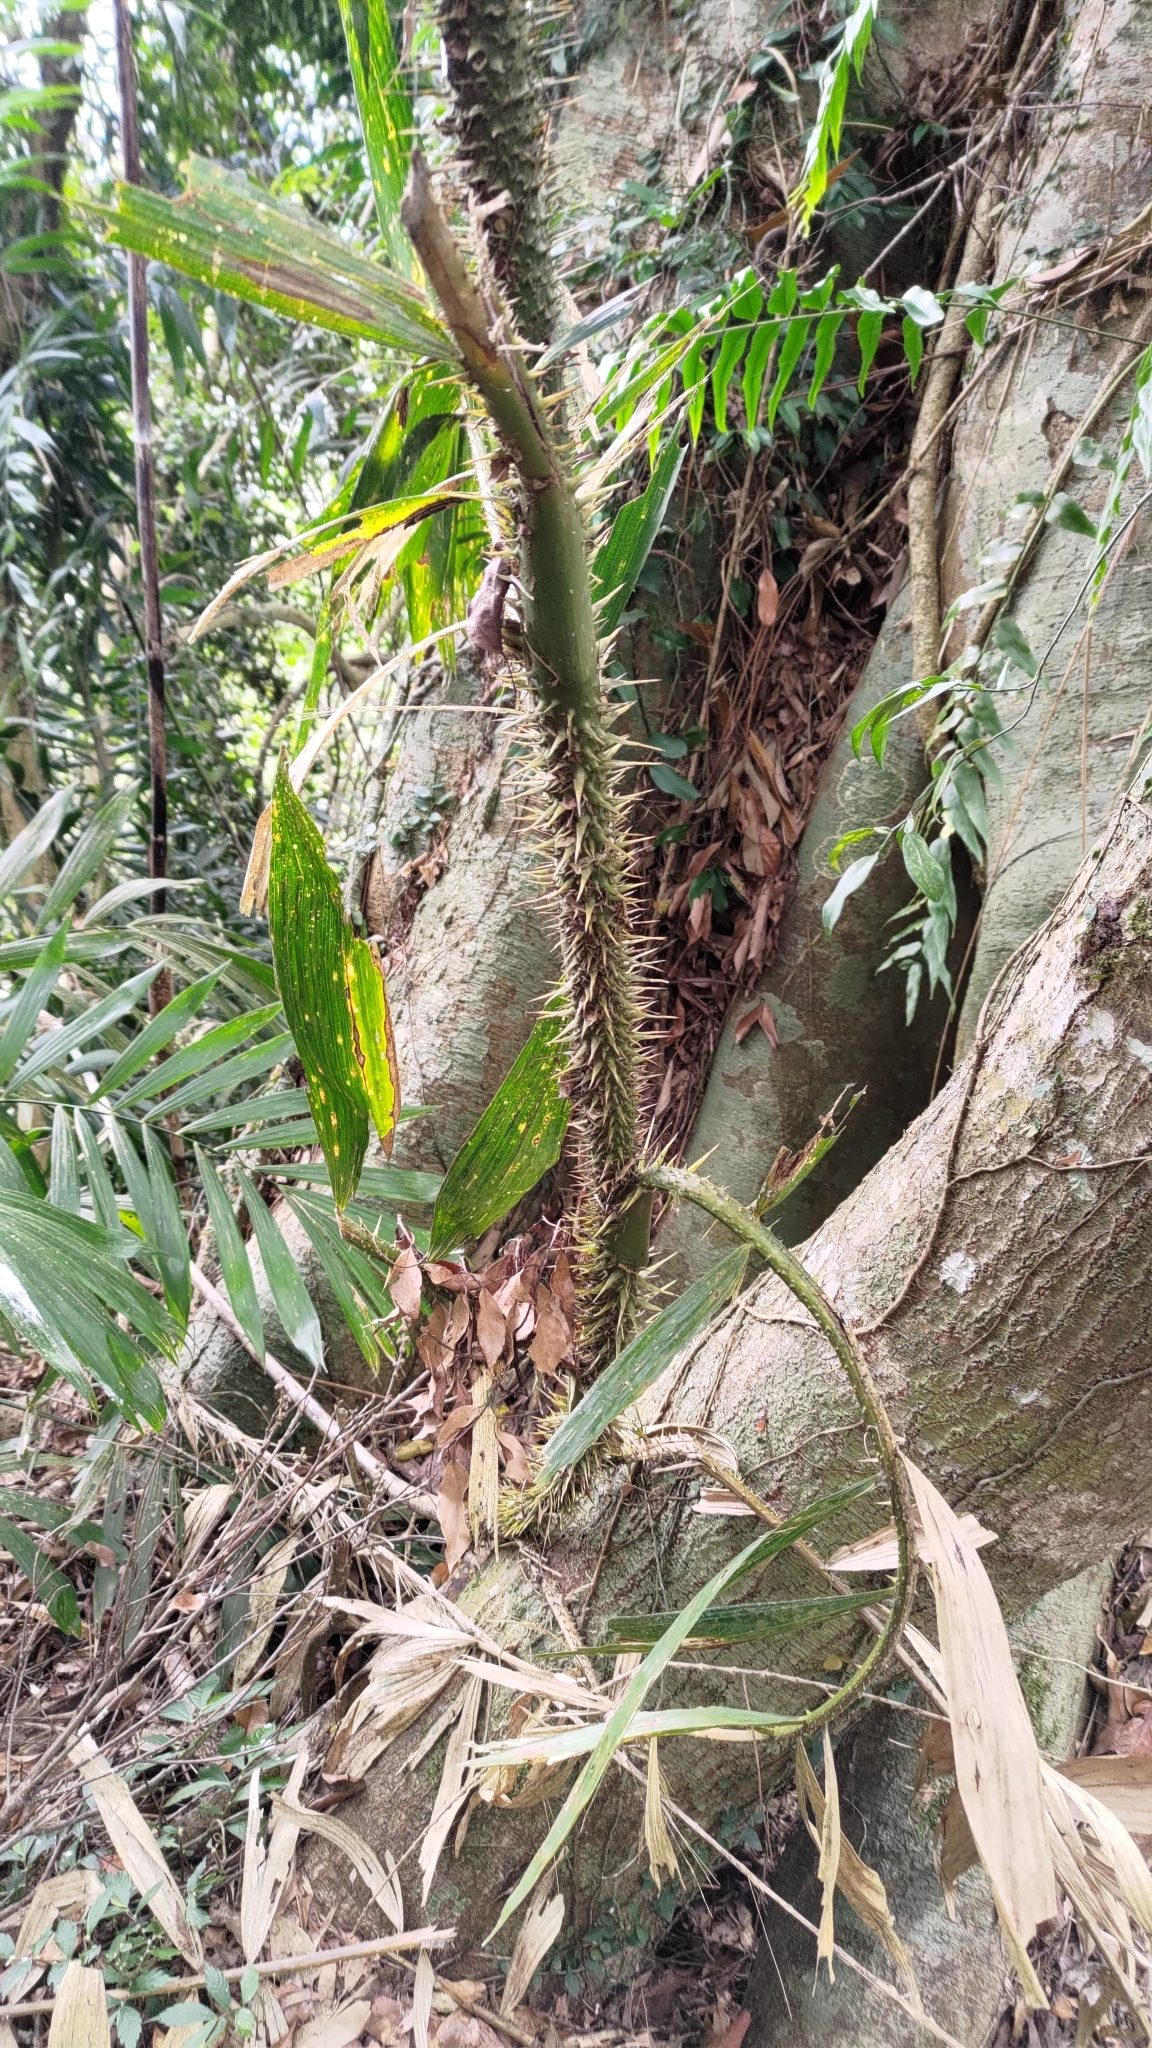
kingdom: Plantae
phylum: Tracheophyta
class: Liliopsida
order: Arecales
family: Arecaceae
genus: Calamus
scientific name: Calamus formosanus
